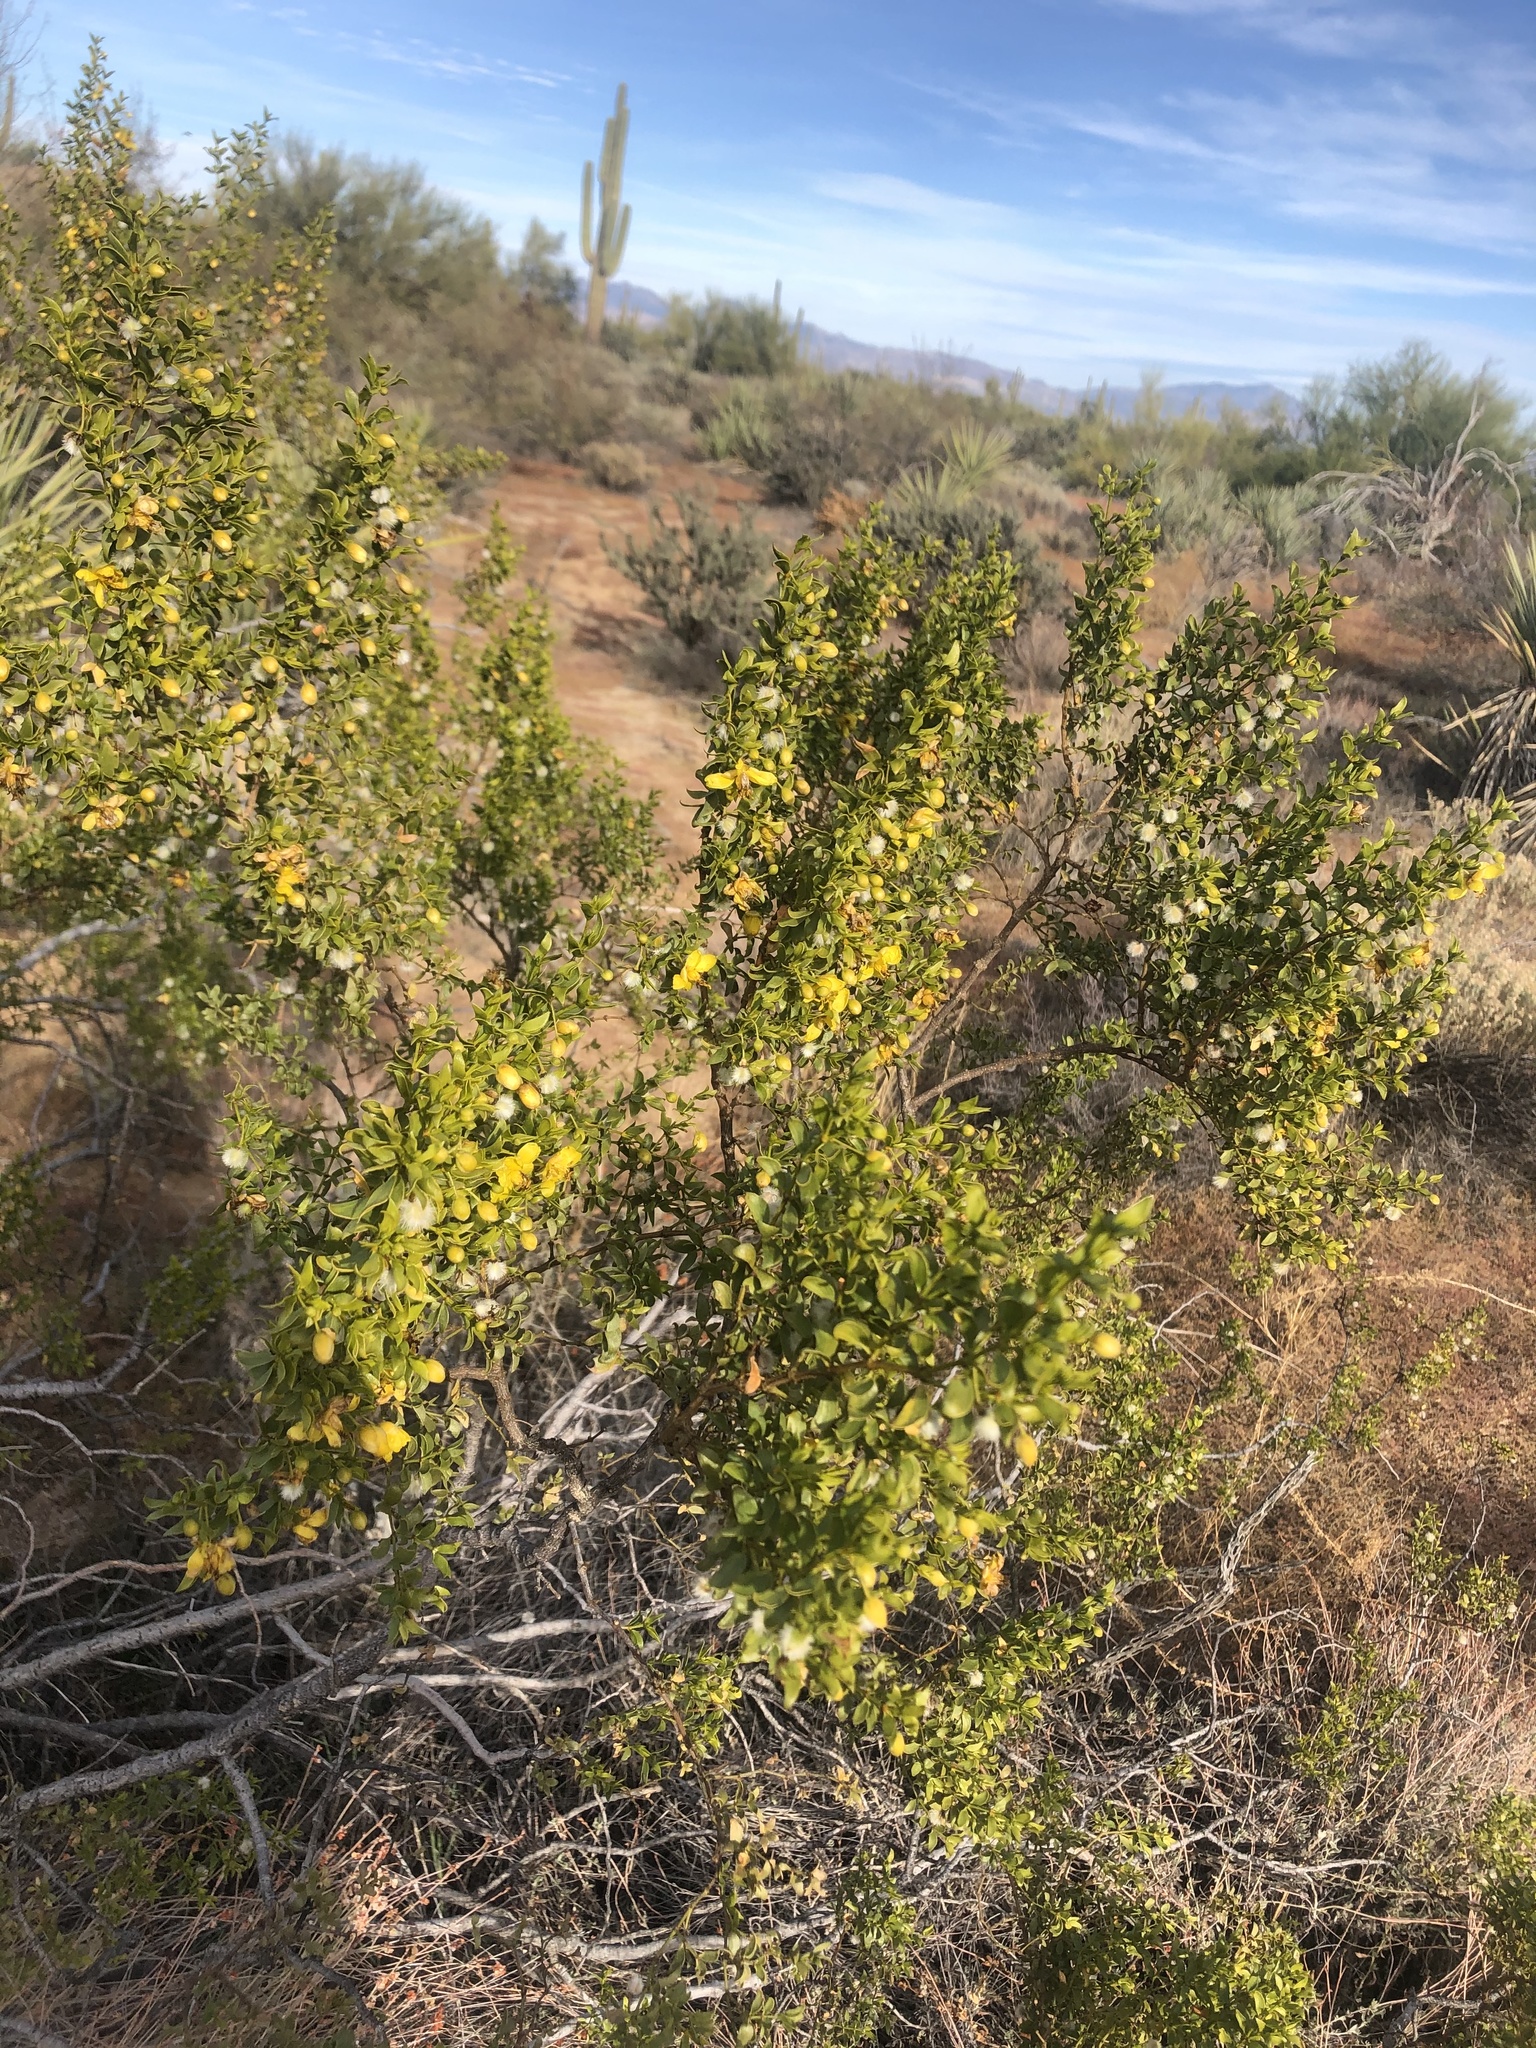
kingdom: Plantae
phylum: Tracheophyta
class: Magnoliopsida
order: Zygophyllales
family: Zygophyllaceae
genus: Larrea
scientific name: Larrea tridentata
